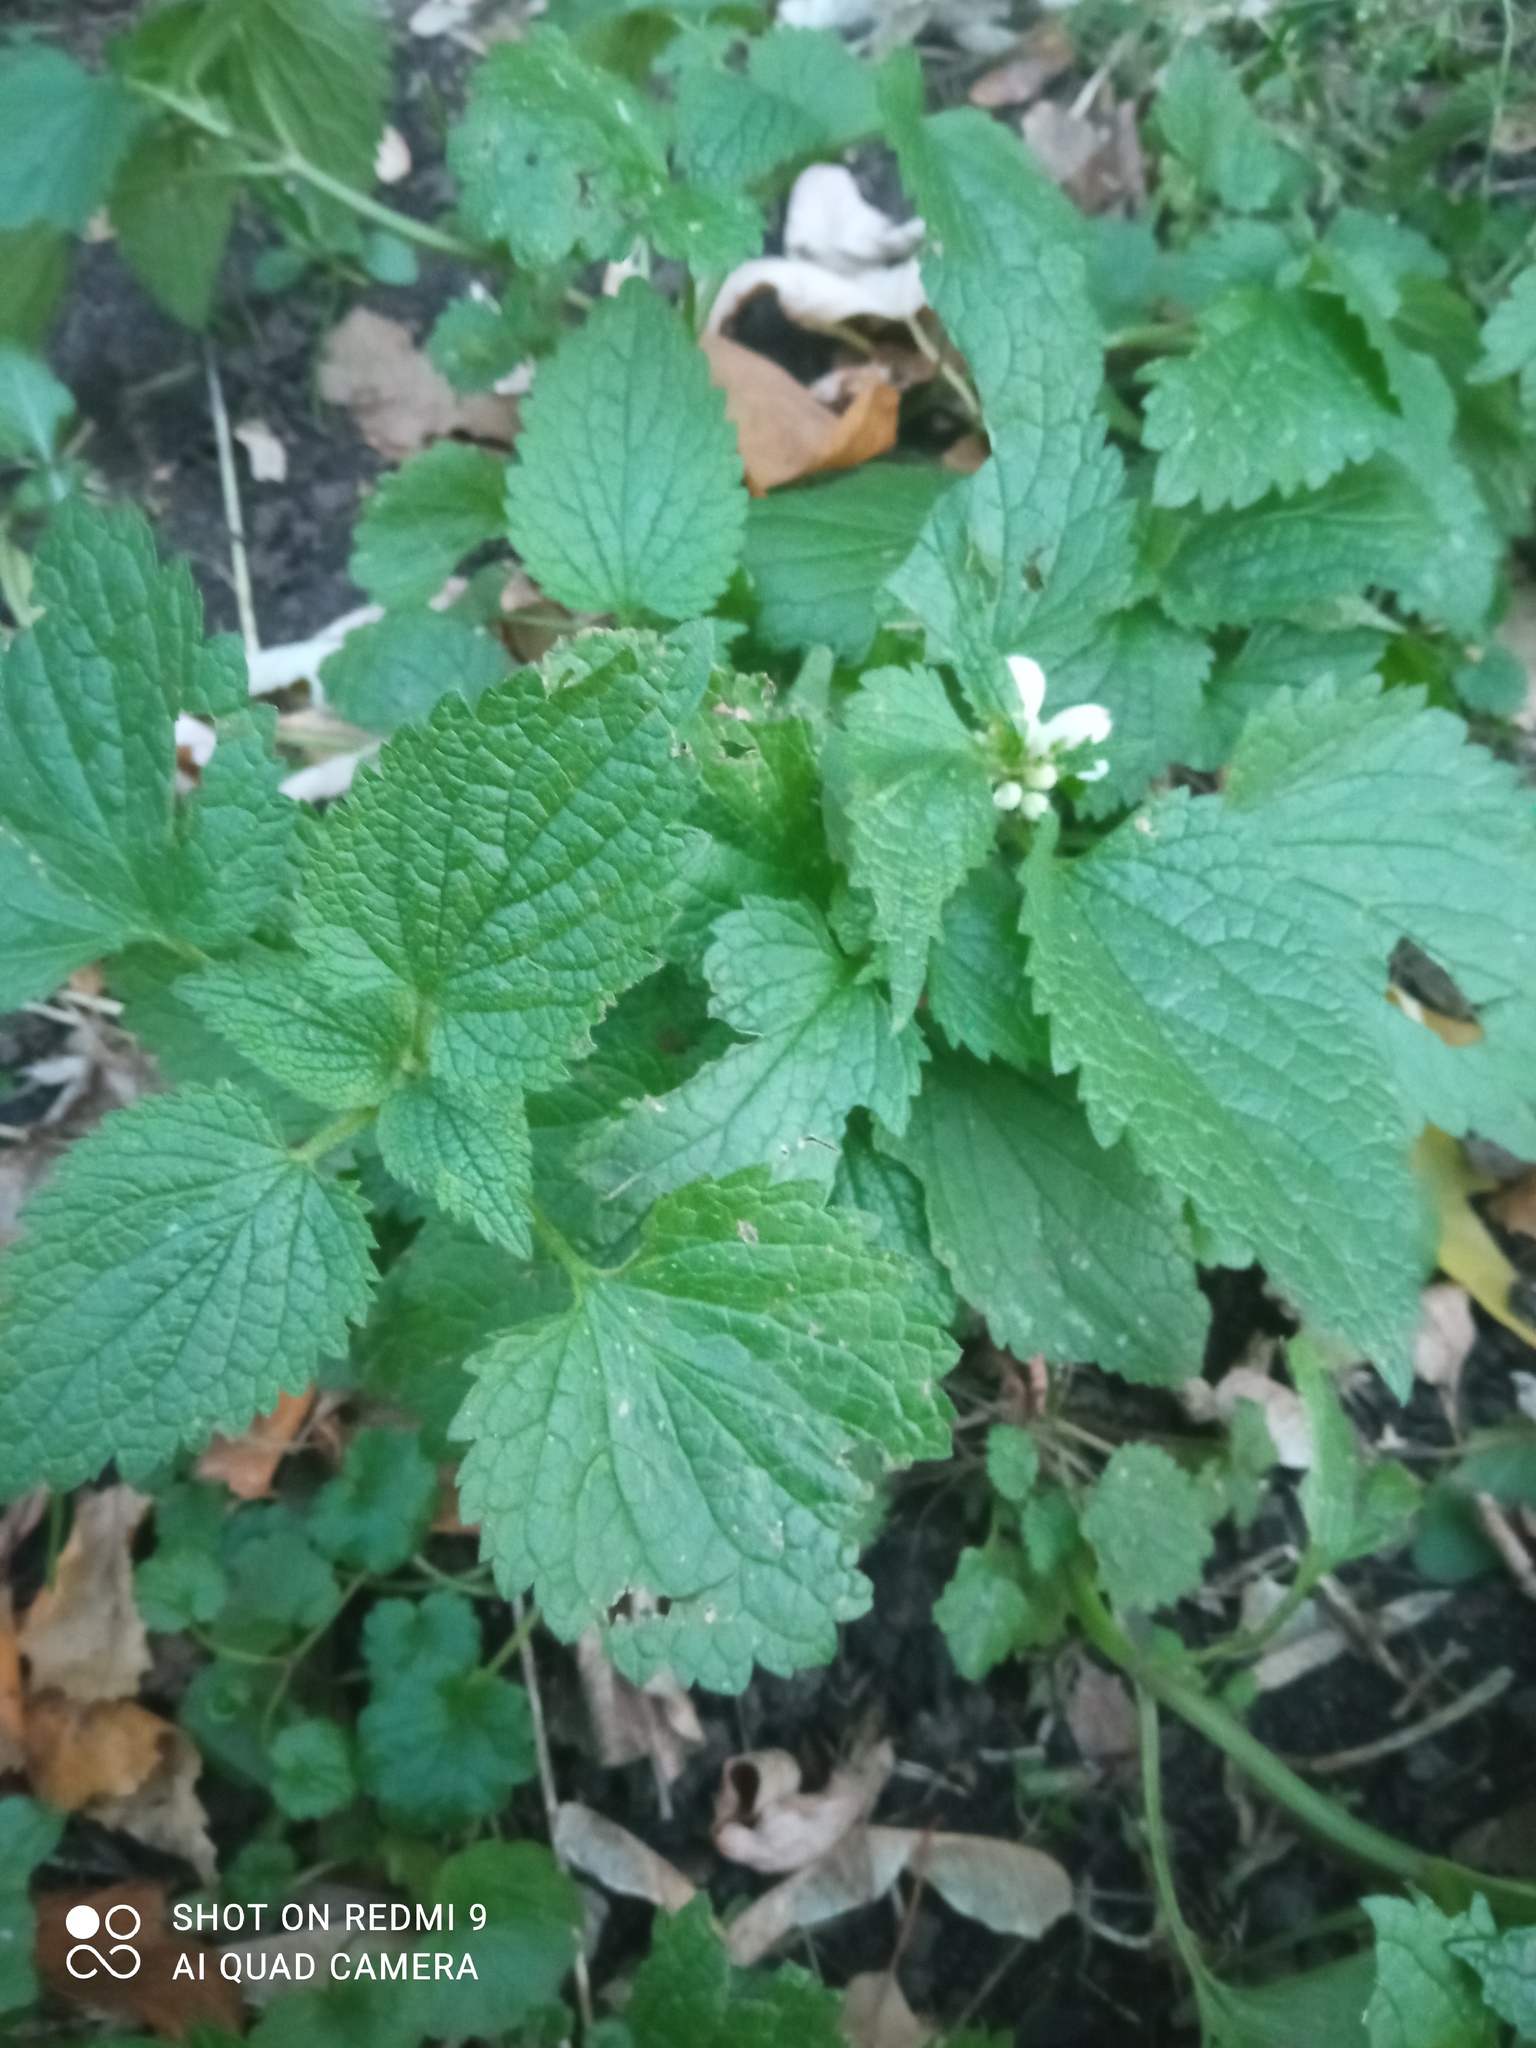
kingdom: Plantae
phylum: Tracheophyta
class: Magnoliopsida
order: Lamiales
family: Lamiaceae
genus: Lamium
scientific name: Lamium album
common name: White dead-nettle
